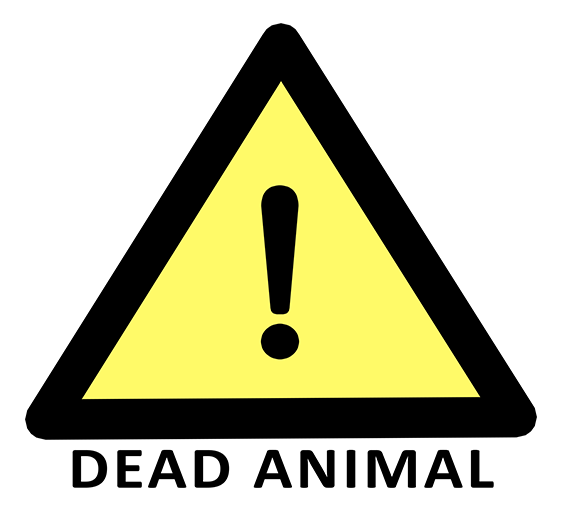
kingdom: Animalia
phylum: Chordata
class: Mammalia
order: Rodentia
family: Sciuridae
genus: Sciurus
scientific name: Sciurus carolinensis
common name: Eastern gray squirrel
